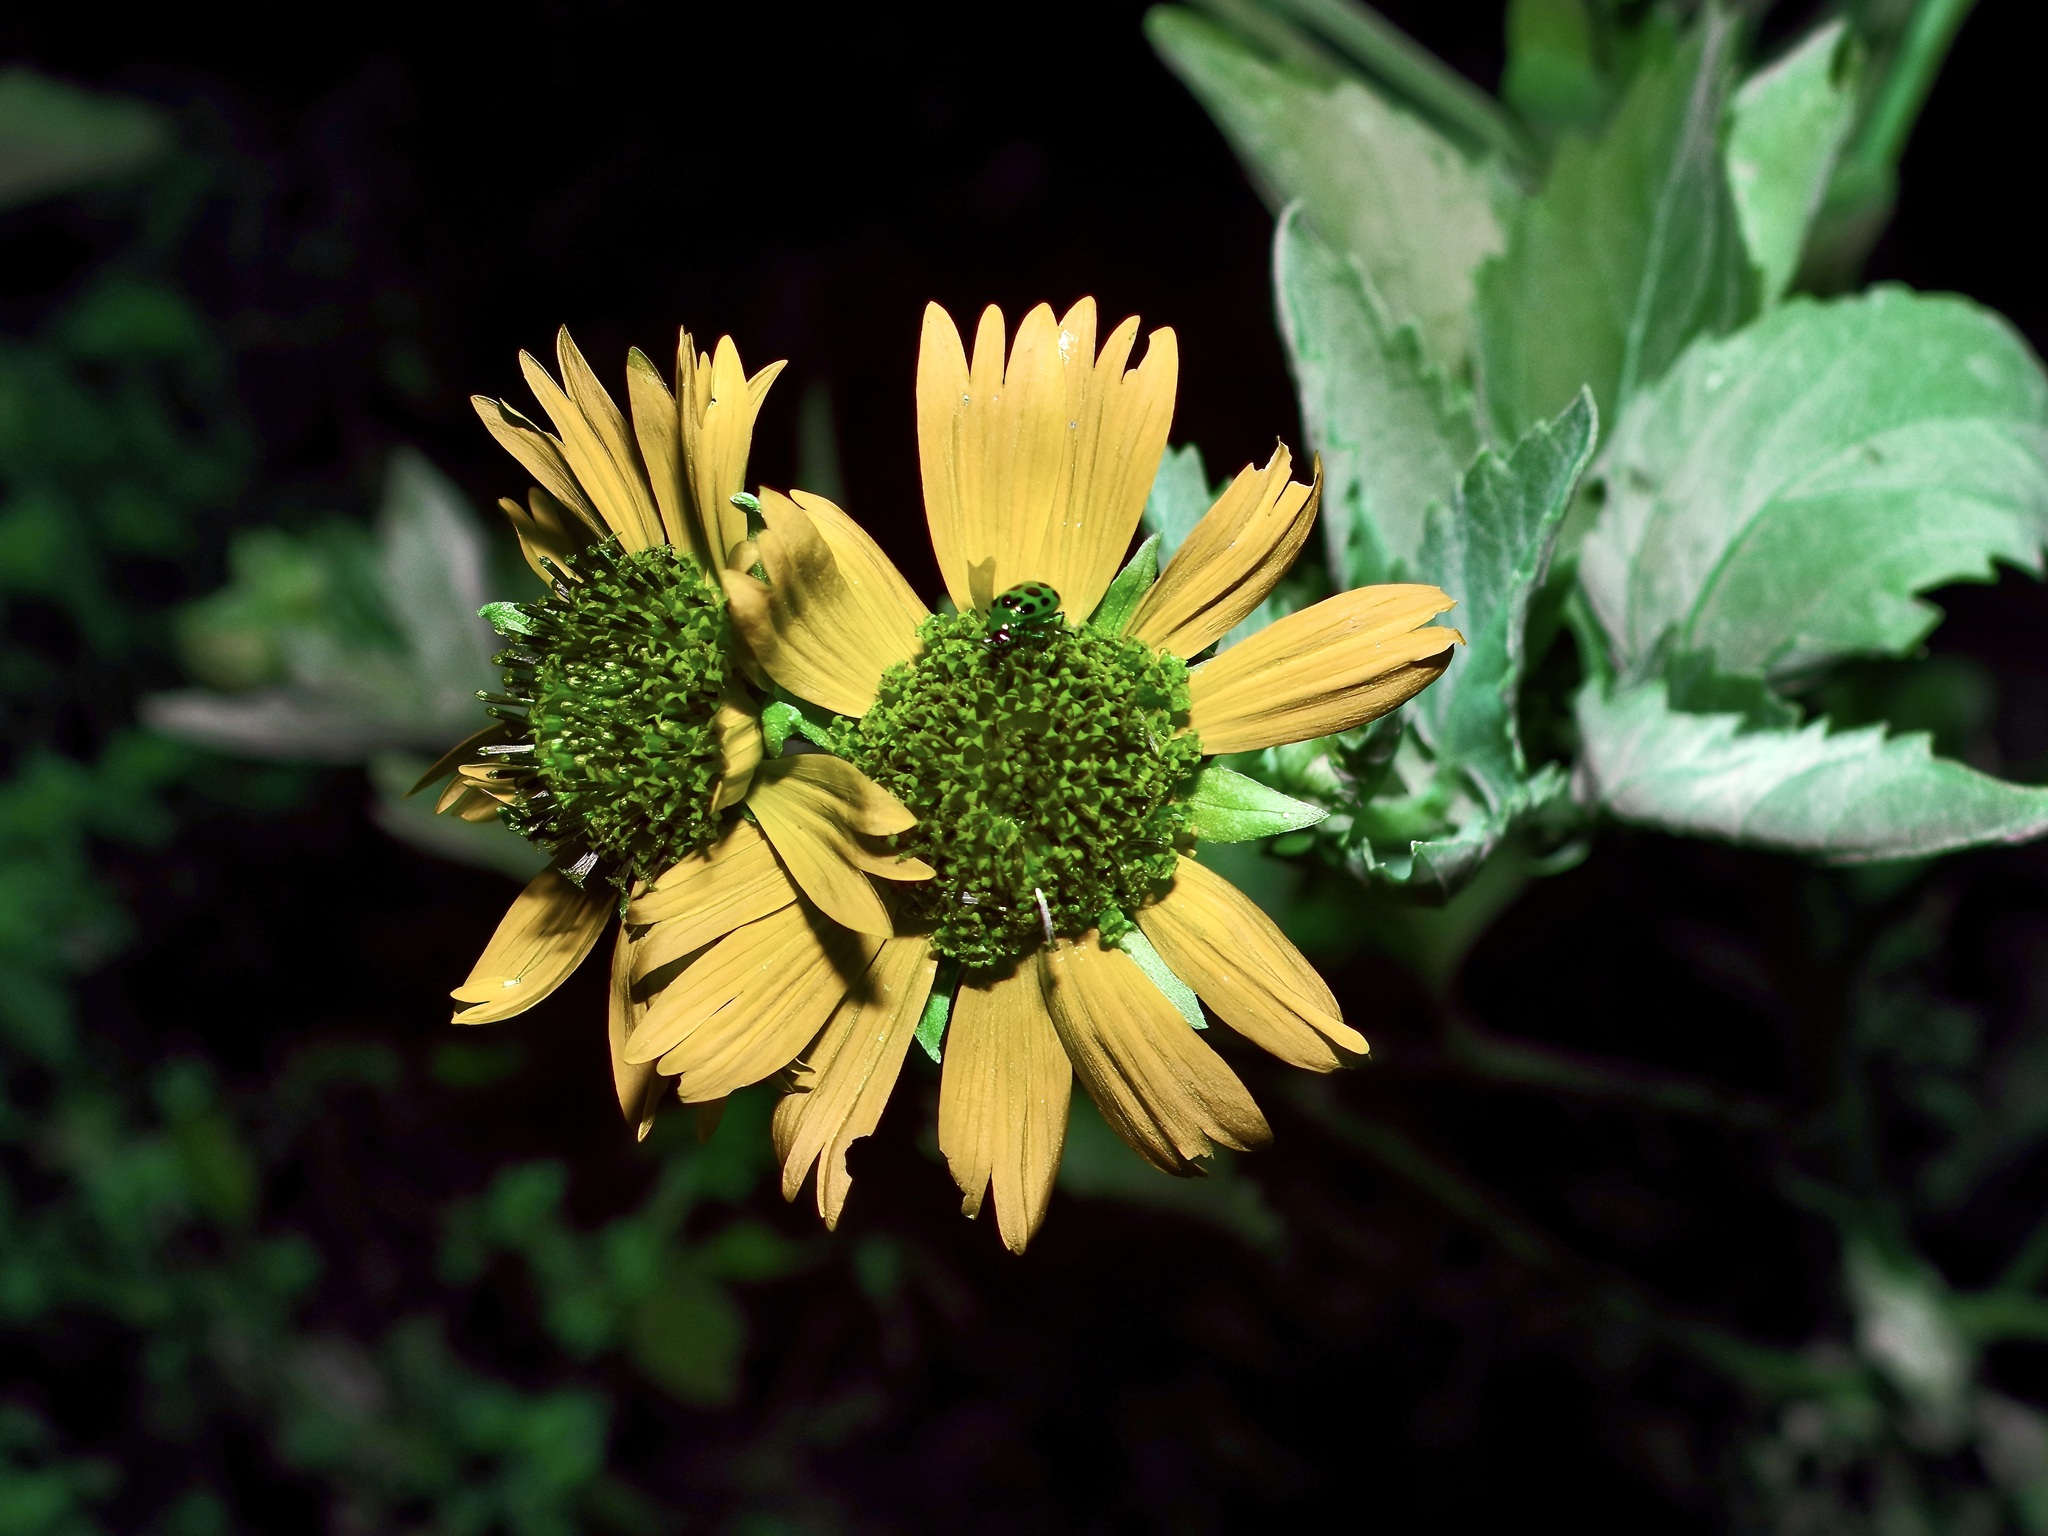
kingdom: Plantae
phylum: Tracheophyta
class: Magnoliopsida
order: Asterales
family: Asteraceae
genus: Verbesina
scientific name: Verbesina encelioides
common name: Golden crownbeard
